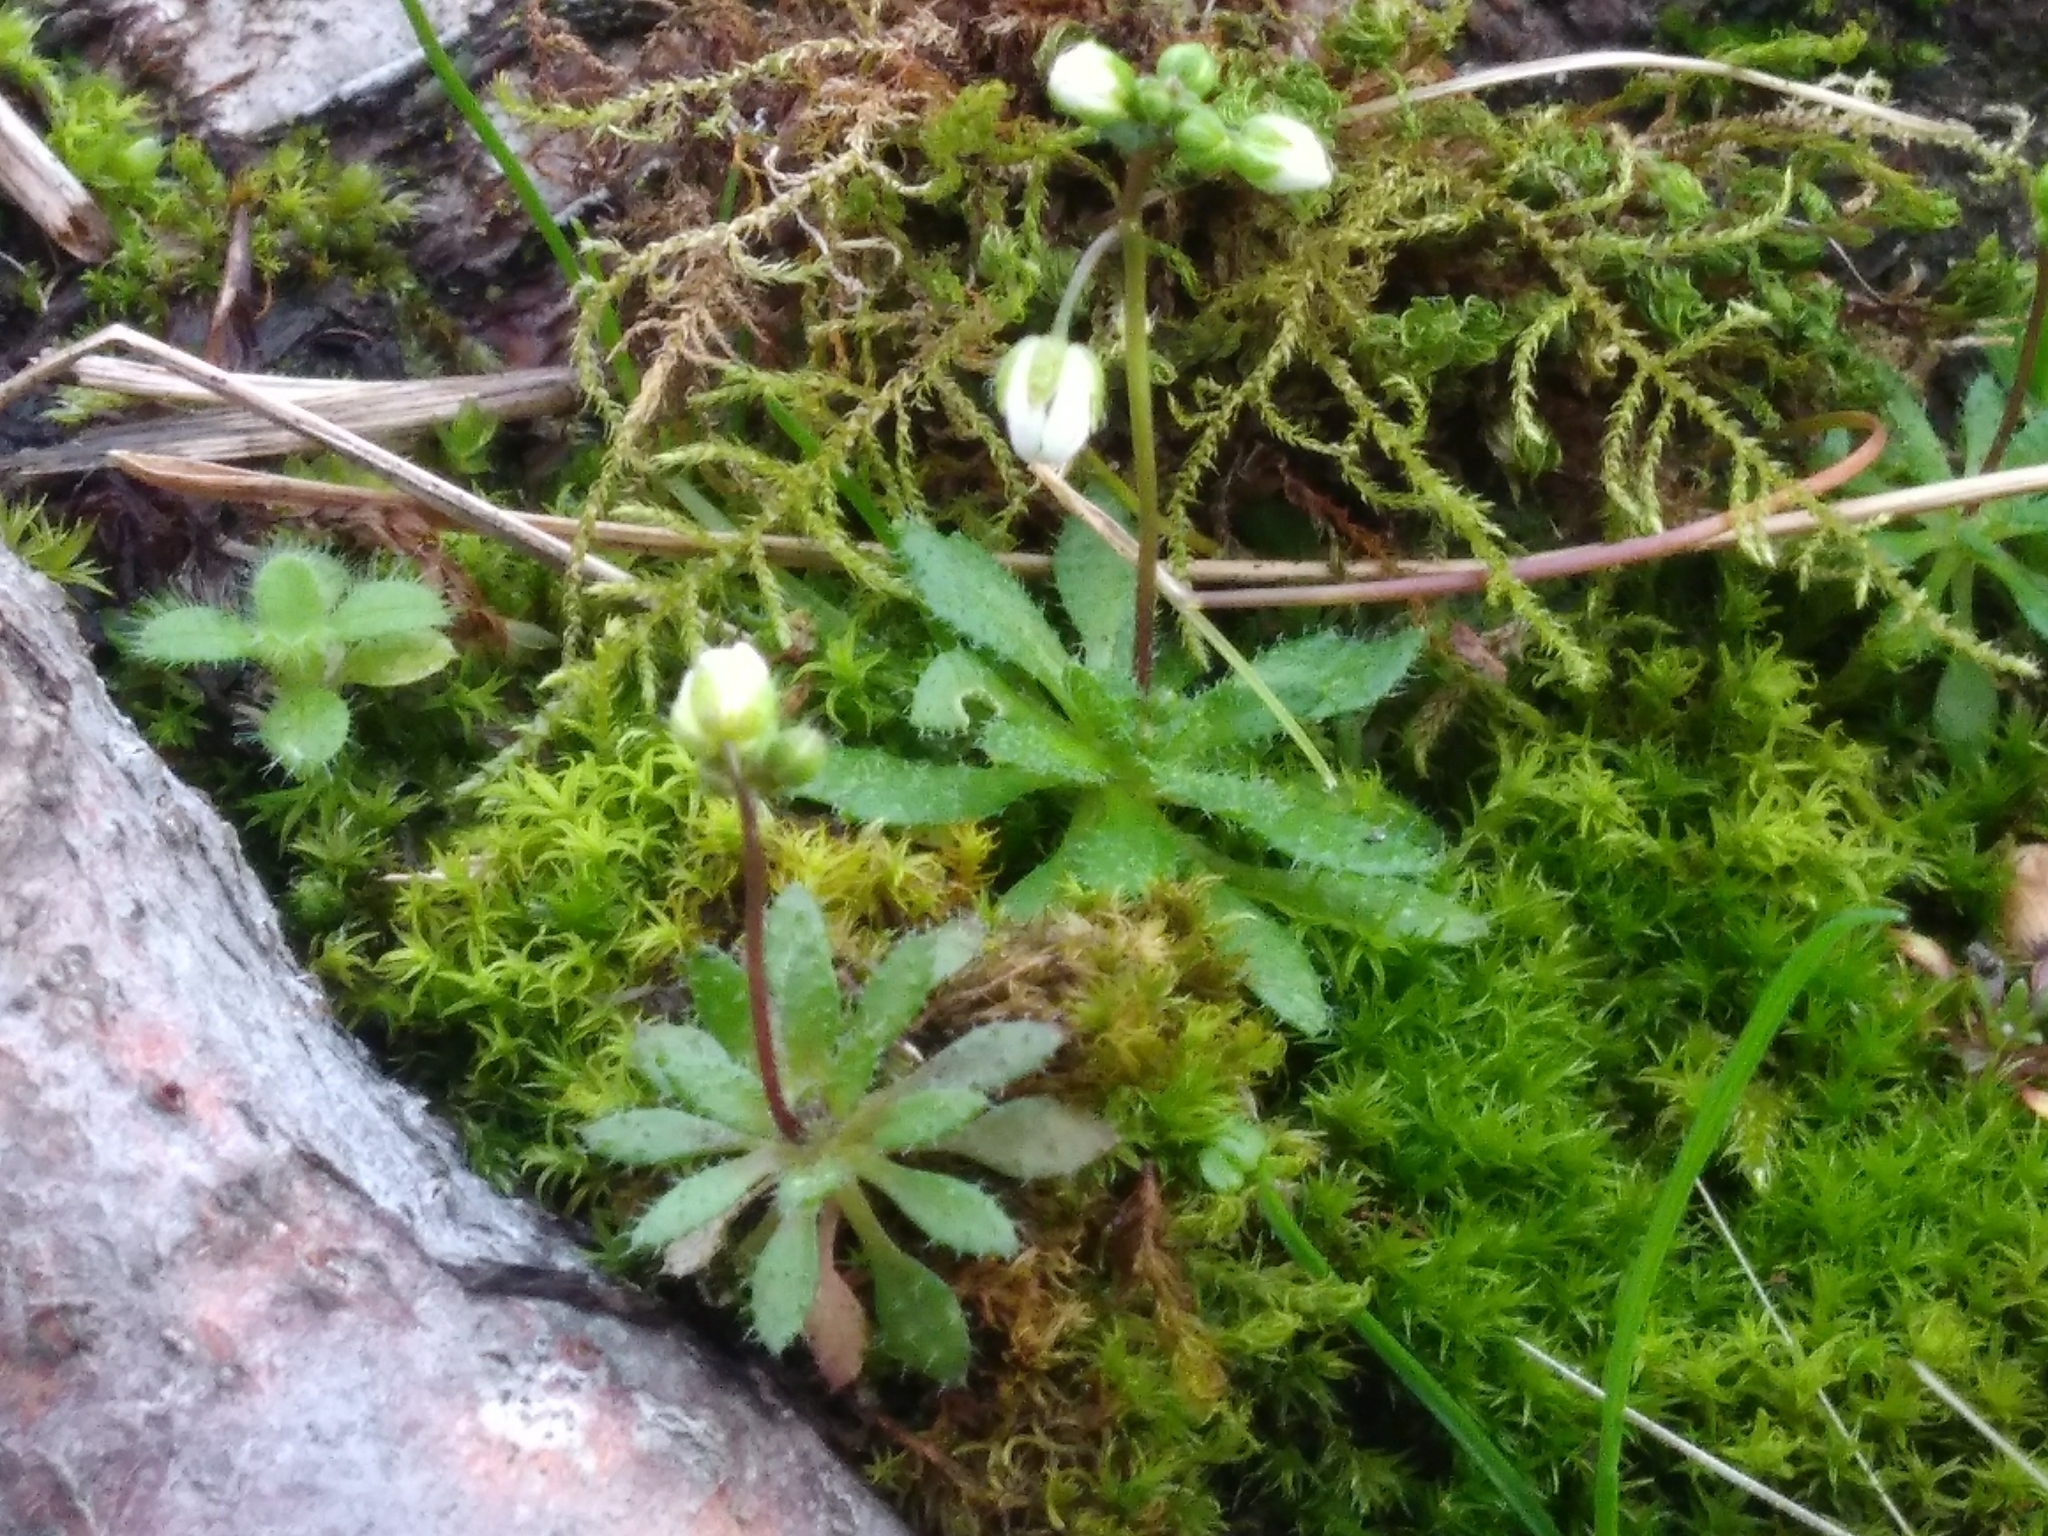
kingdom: Plantae
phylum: Tracheophyta
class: Magnoliopsida
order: Brassicales
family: Brassicaceae
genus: Draba
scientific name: Draba verna
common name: Spring draba
